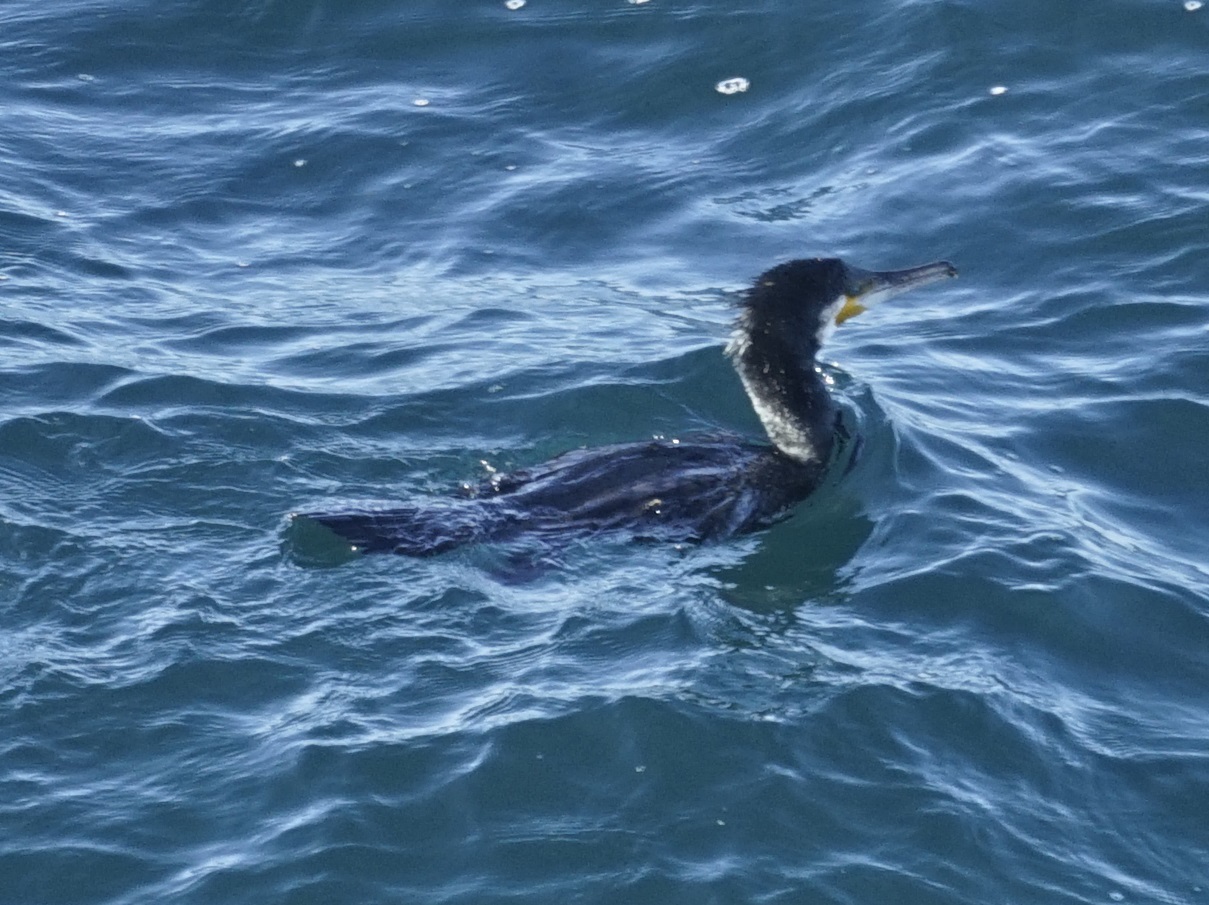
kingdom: Animalia
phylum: Chordata
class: Aves
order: Suliformes
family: Phalacrocoracidae
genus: Phalacrocorax
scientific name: Phalacrocorax carbo
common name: Great cormorant
